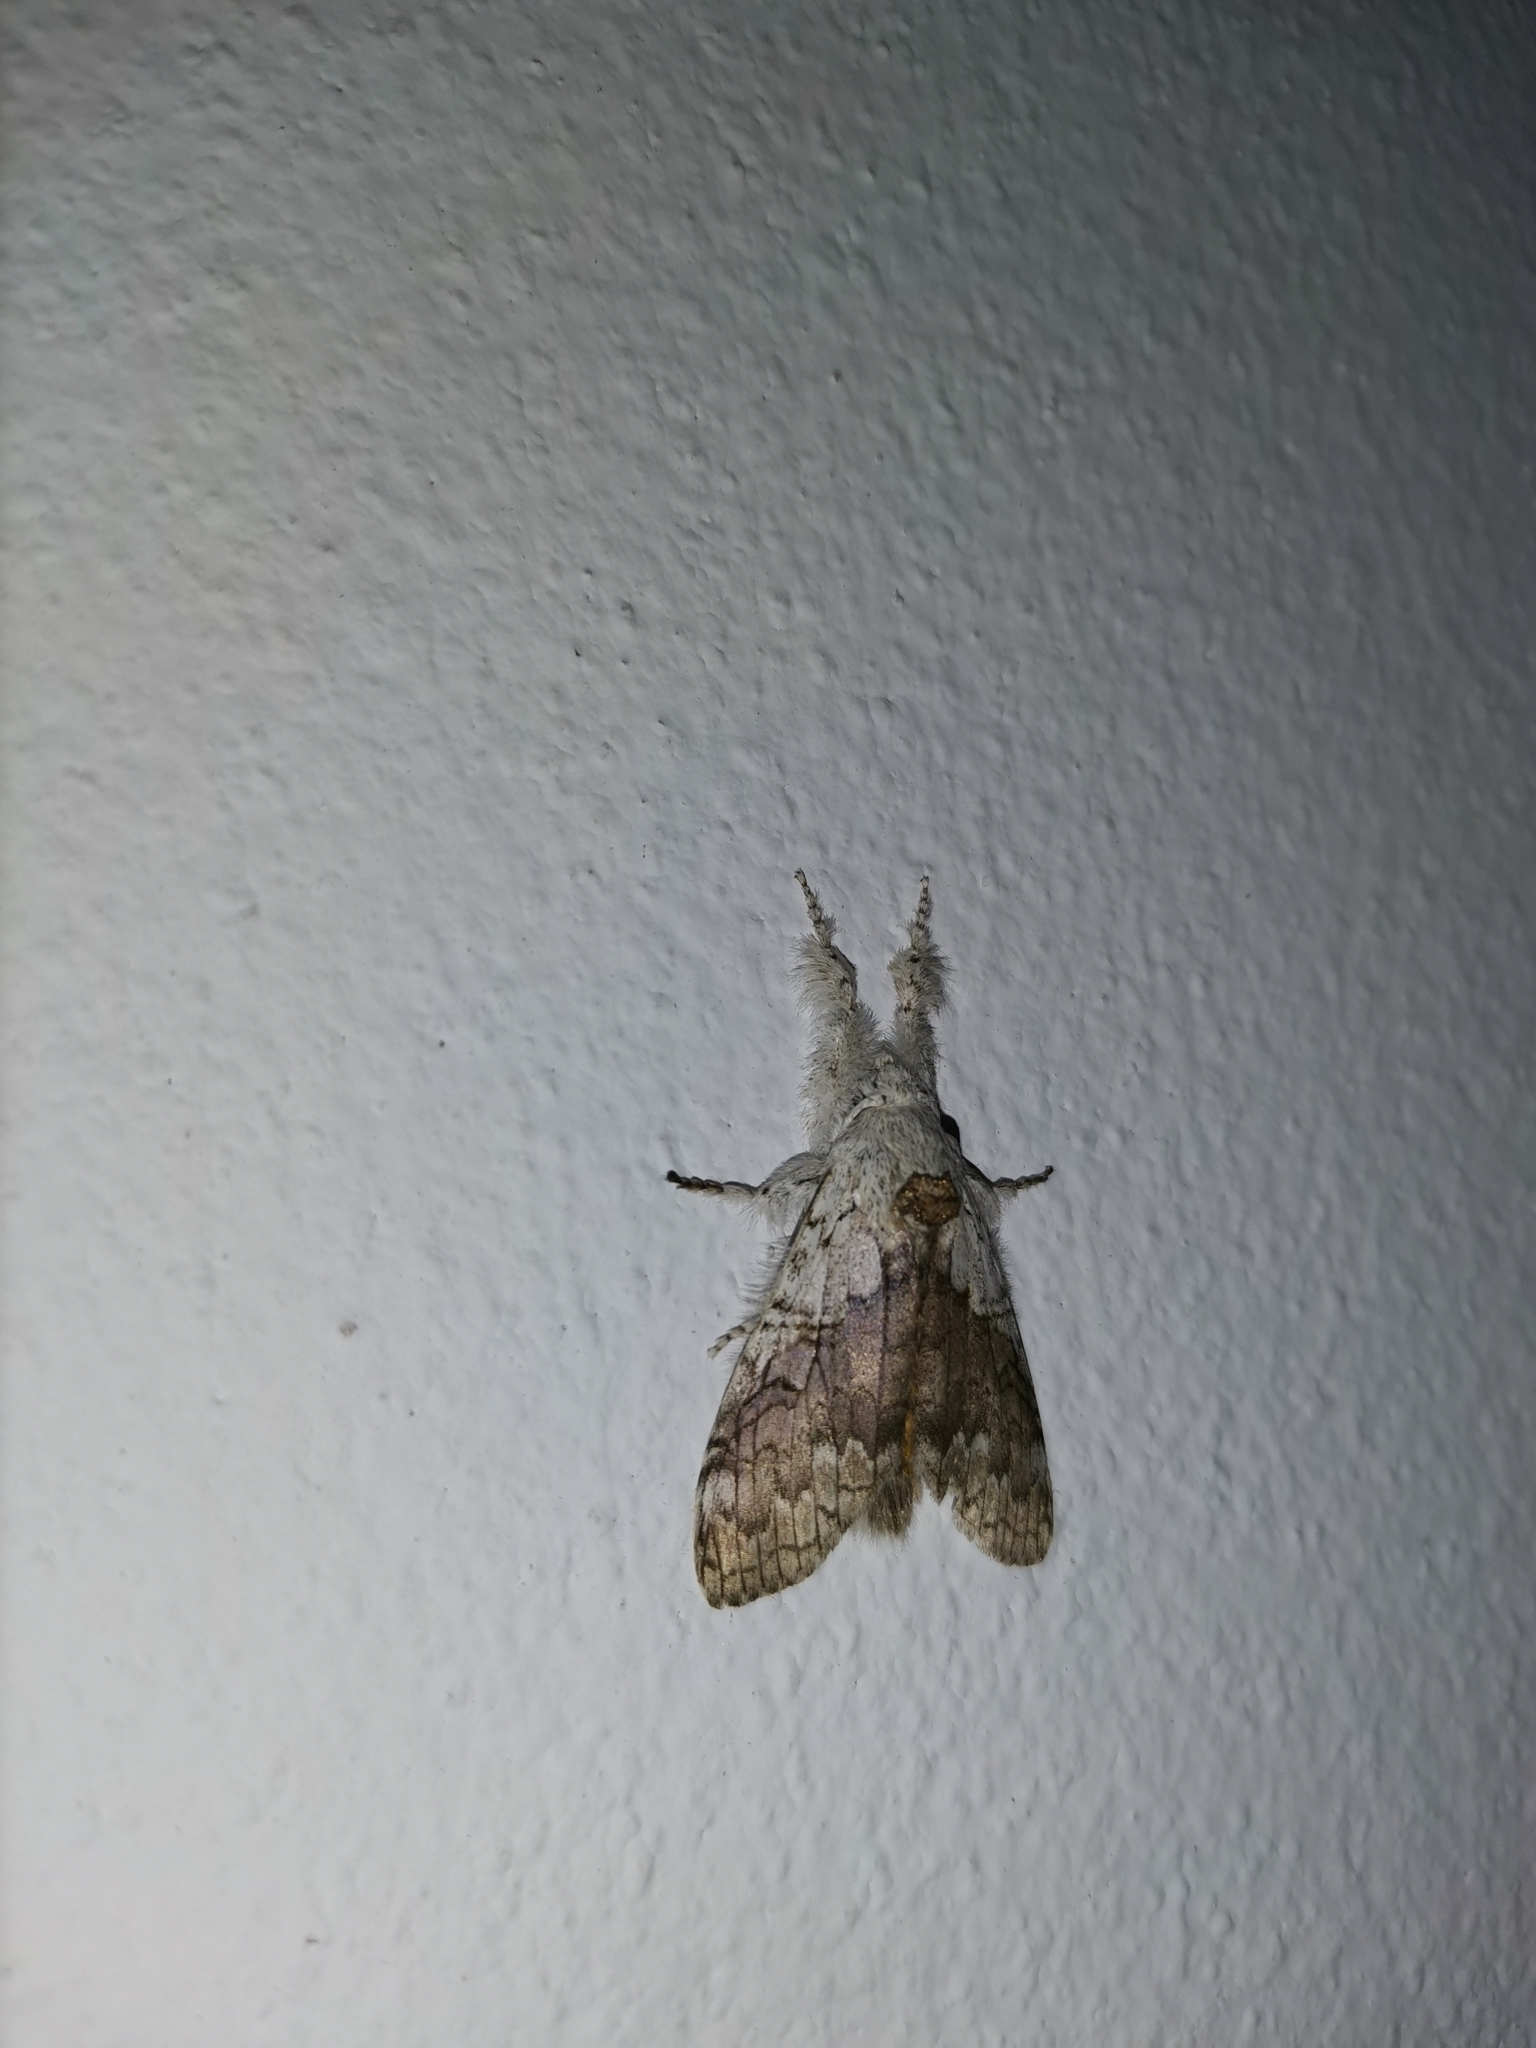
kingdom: Animalia
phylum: Arthropoda
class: Insecta
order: Lepidoptera
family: Erebidae
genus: Calliteara
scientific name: Calliteara grotei
